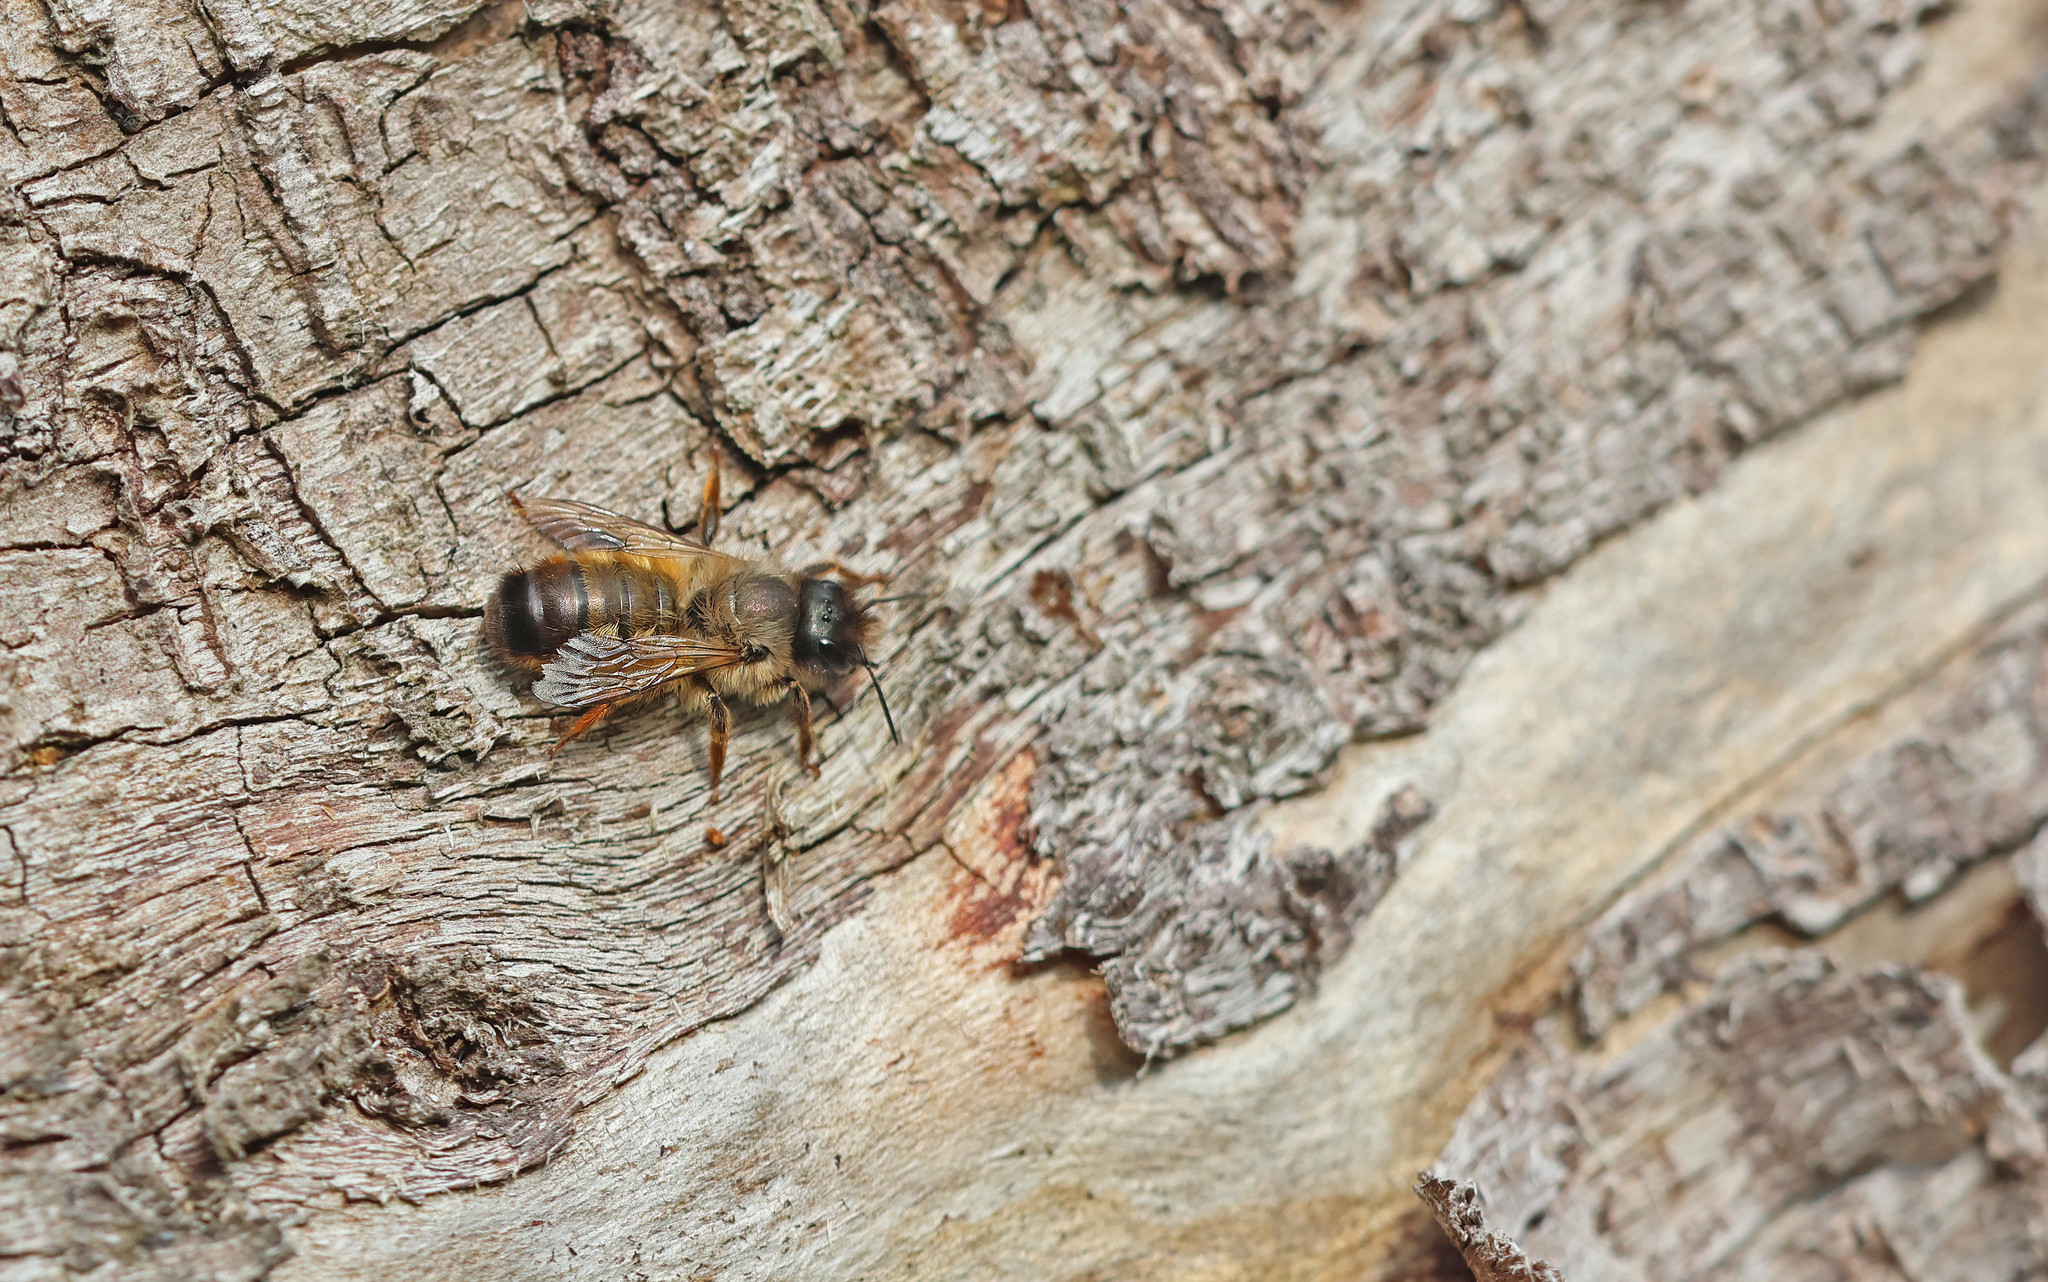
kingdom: Animalia
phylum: Arthropoda
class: Insecta
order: Hymenoptera
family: Megachilidae
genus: Osmia
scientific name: Osmia bicornis
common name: Red mason bee
